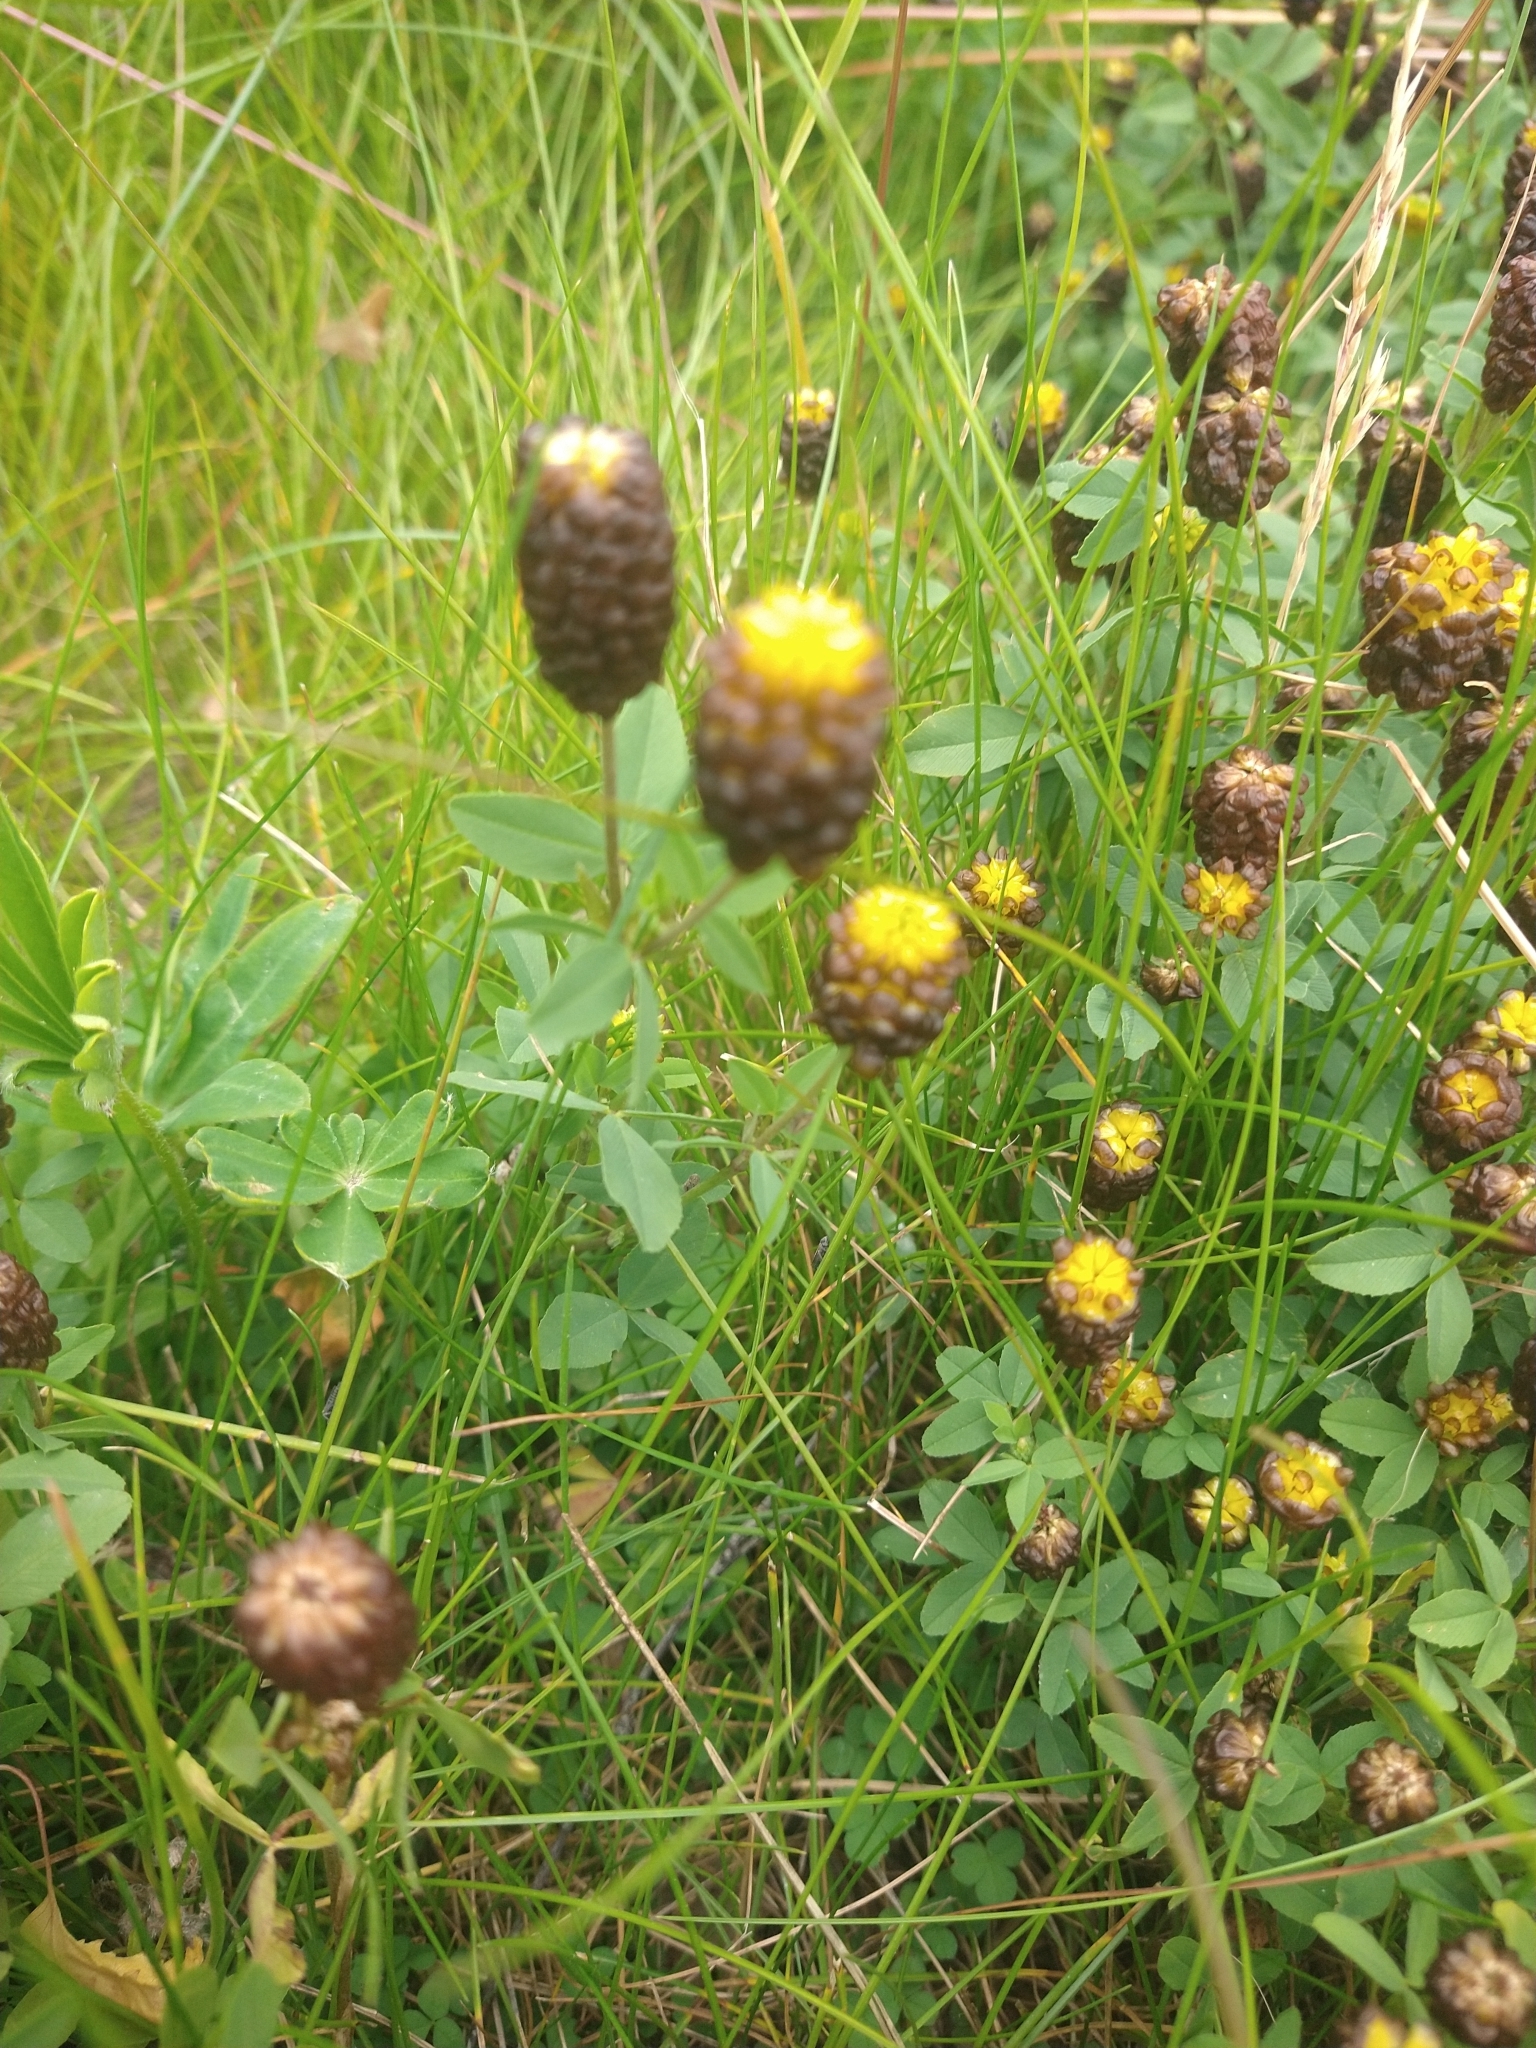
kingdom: Plantae
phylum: Tracheophyta
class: Magnoliopsida
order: Fabales
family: Fabaceae
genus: Trifolium
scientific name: Trifolium spadiceum
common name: Brown moor clover
